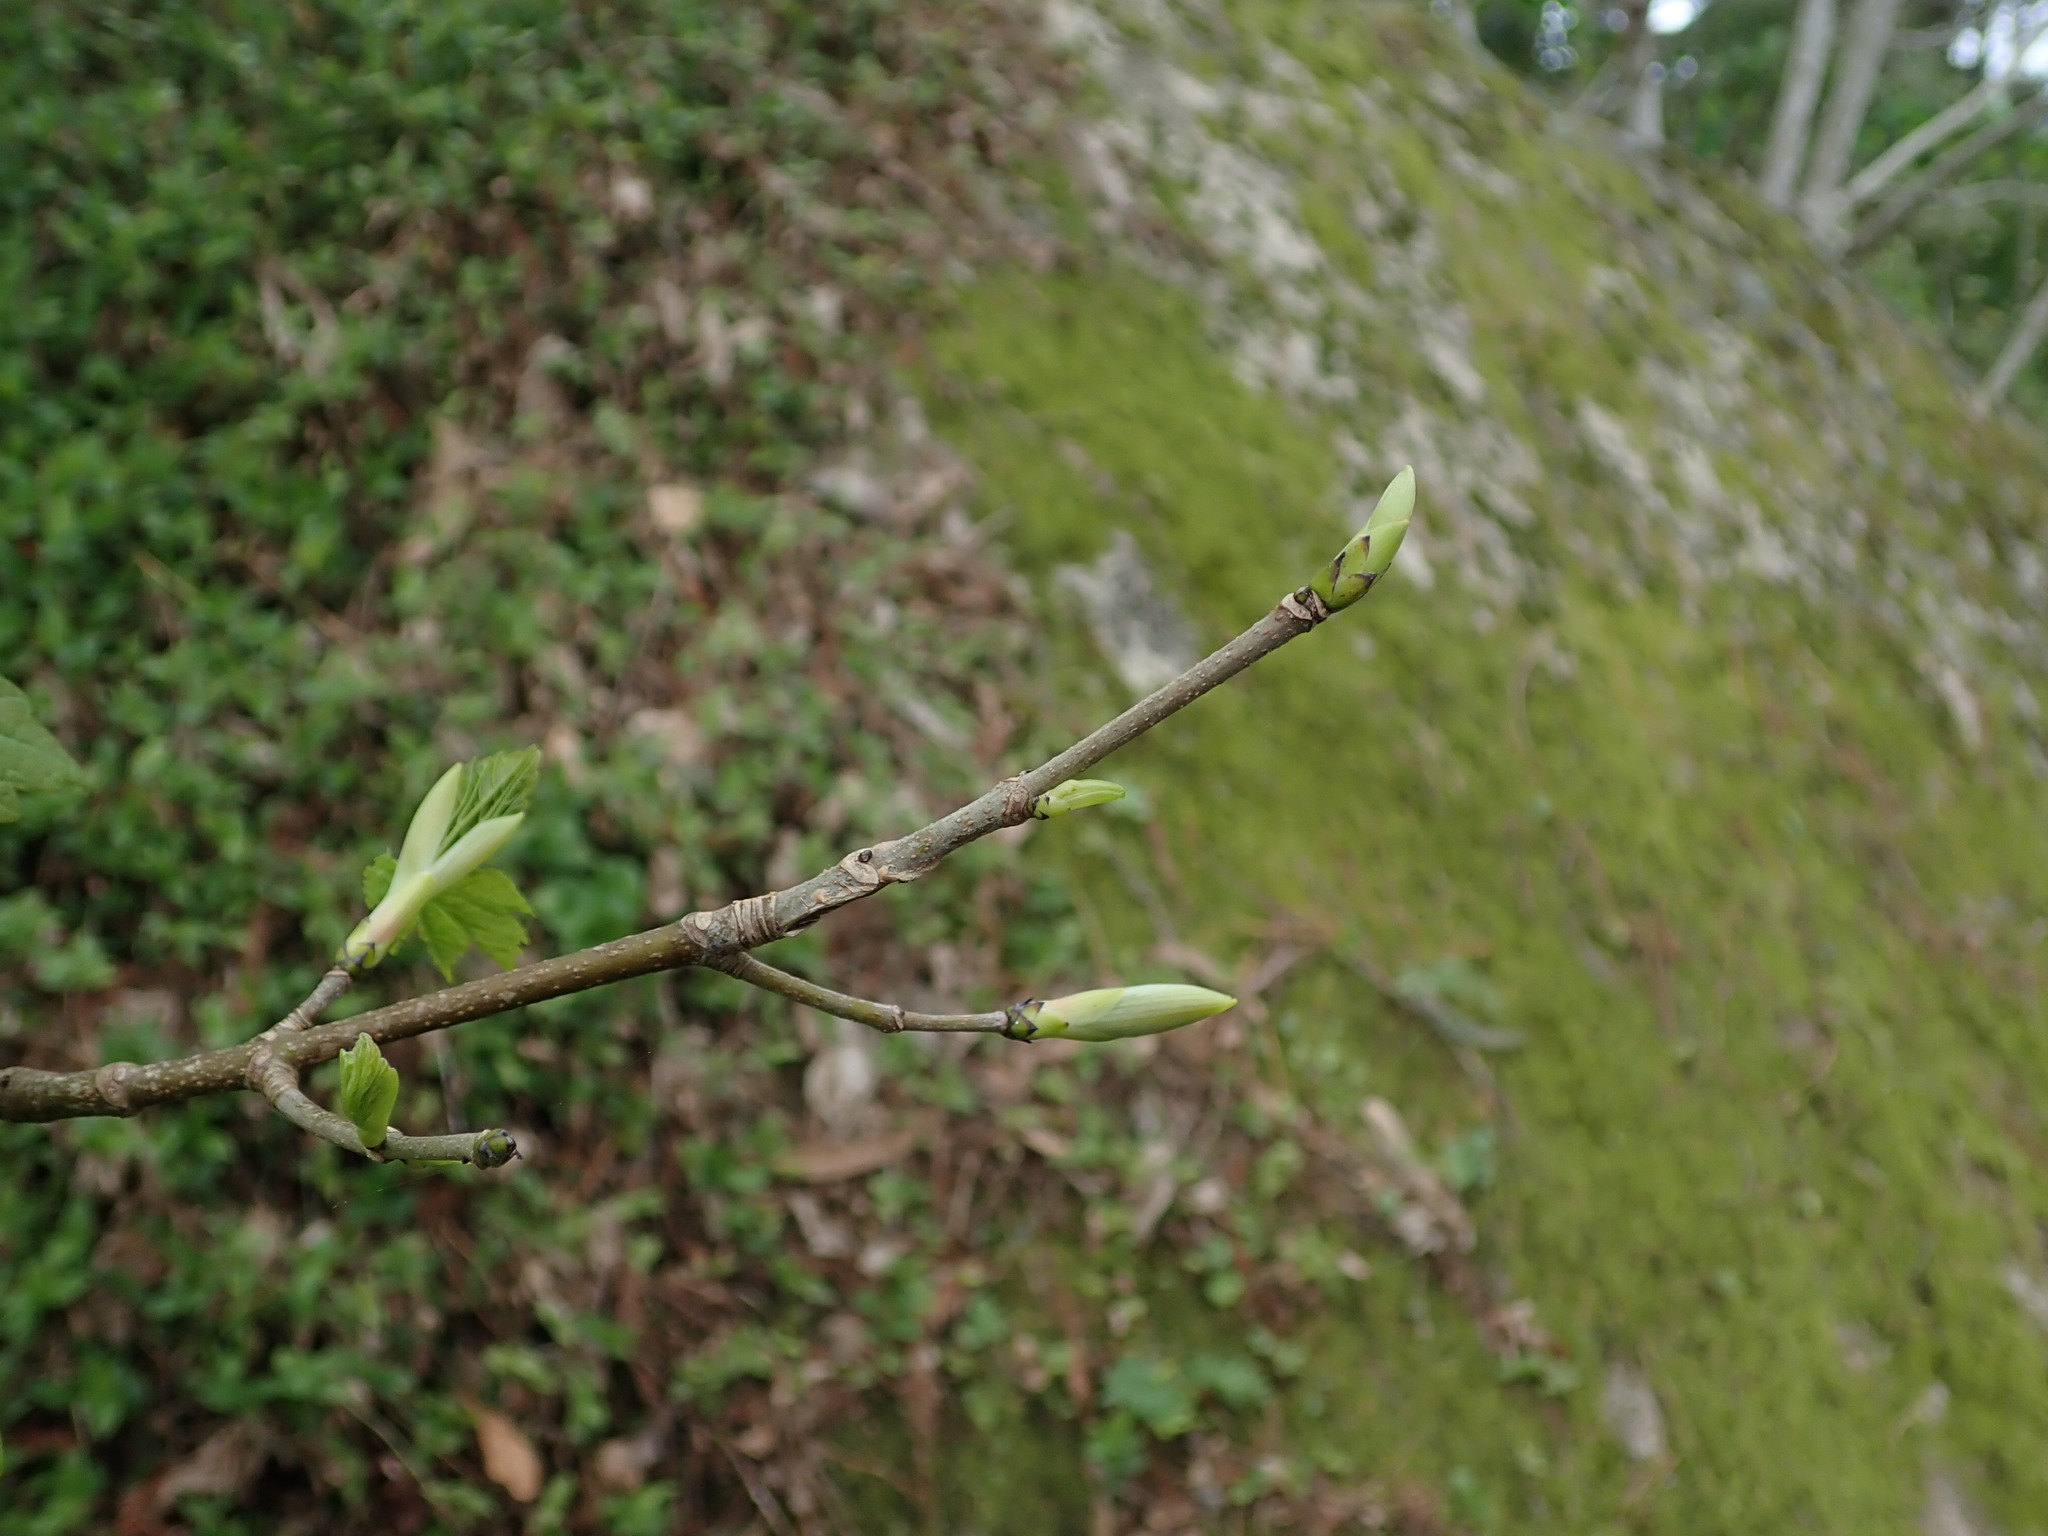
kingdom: Plantae
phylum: Tracheophyta
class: Magnoliopsida
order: Sapindales
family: Sapindaceae
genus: Acer
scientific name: Acer pseudoplatanus
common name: Sycamore
